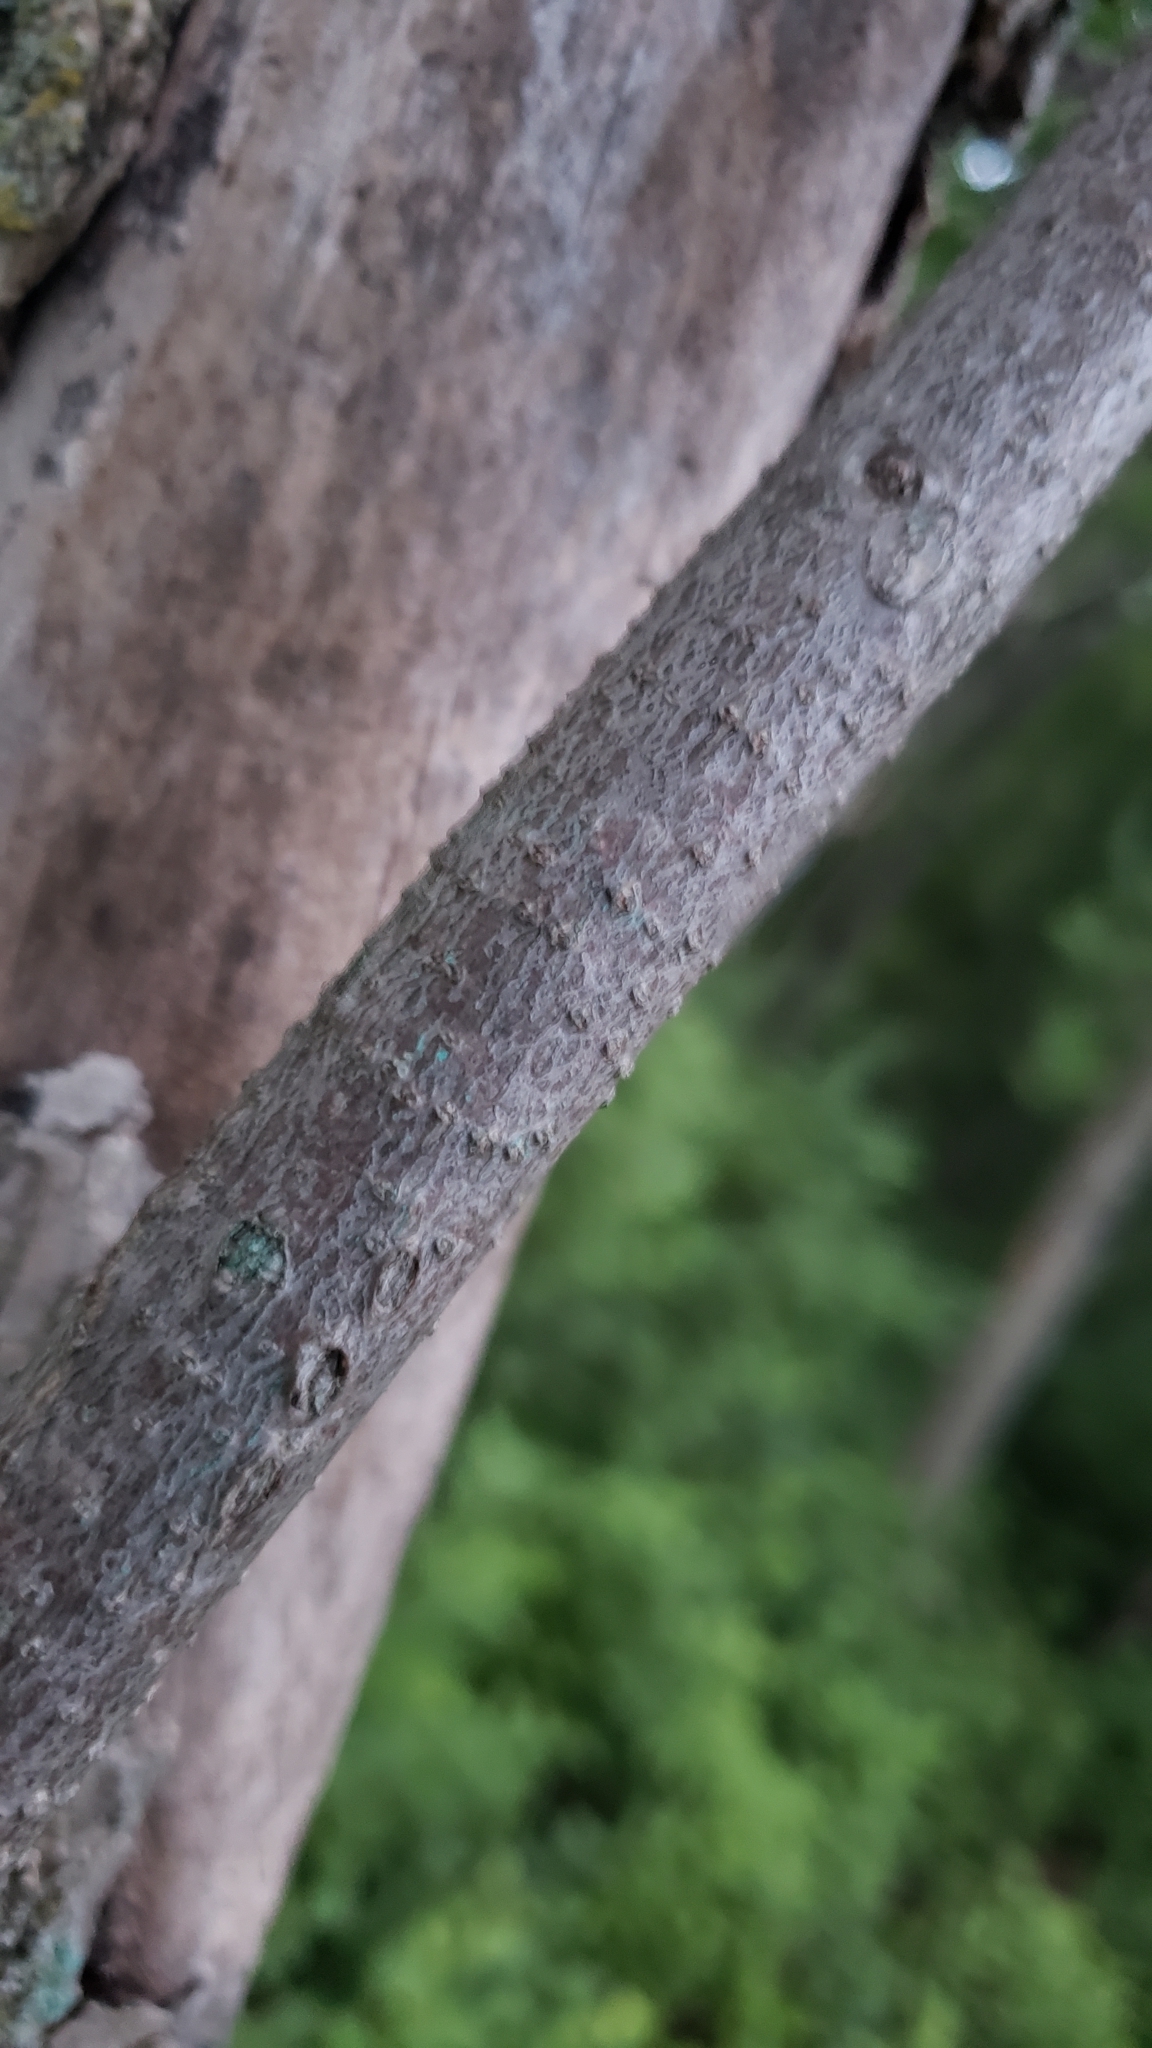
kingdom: Plantae
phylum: Tracheophyta
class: Magnoliopsida
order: Celastrales
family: Celastraceae
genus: Celastrus
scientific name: Celastrus scandens
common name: American bittersweet
